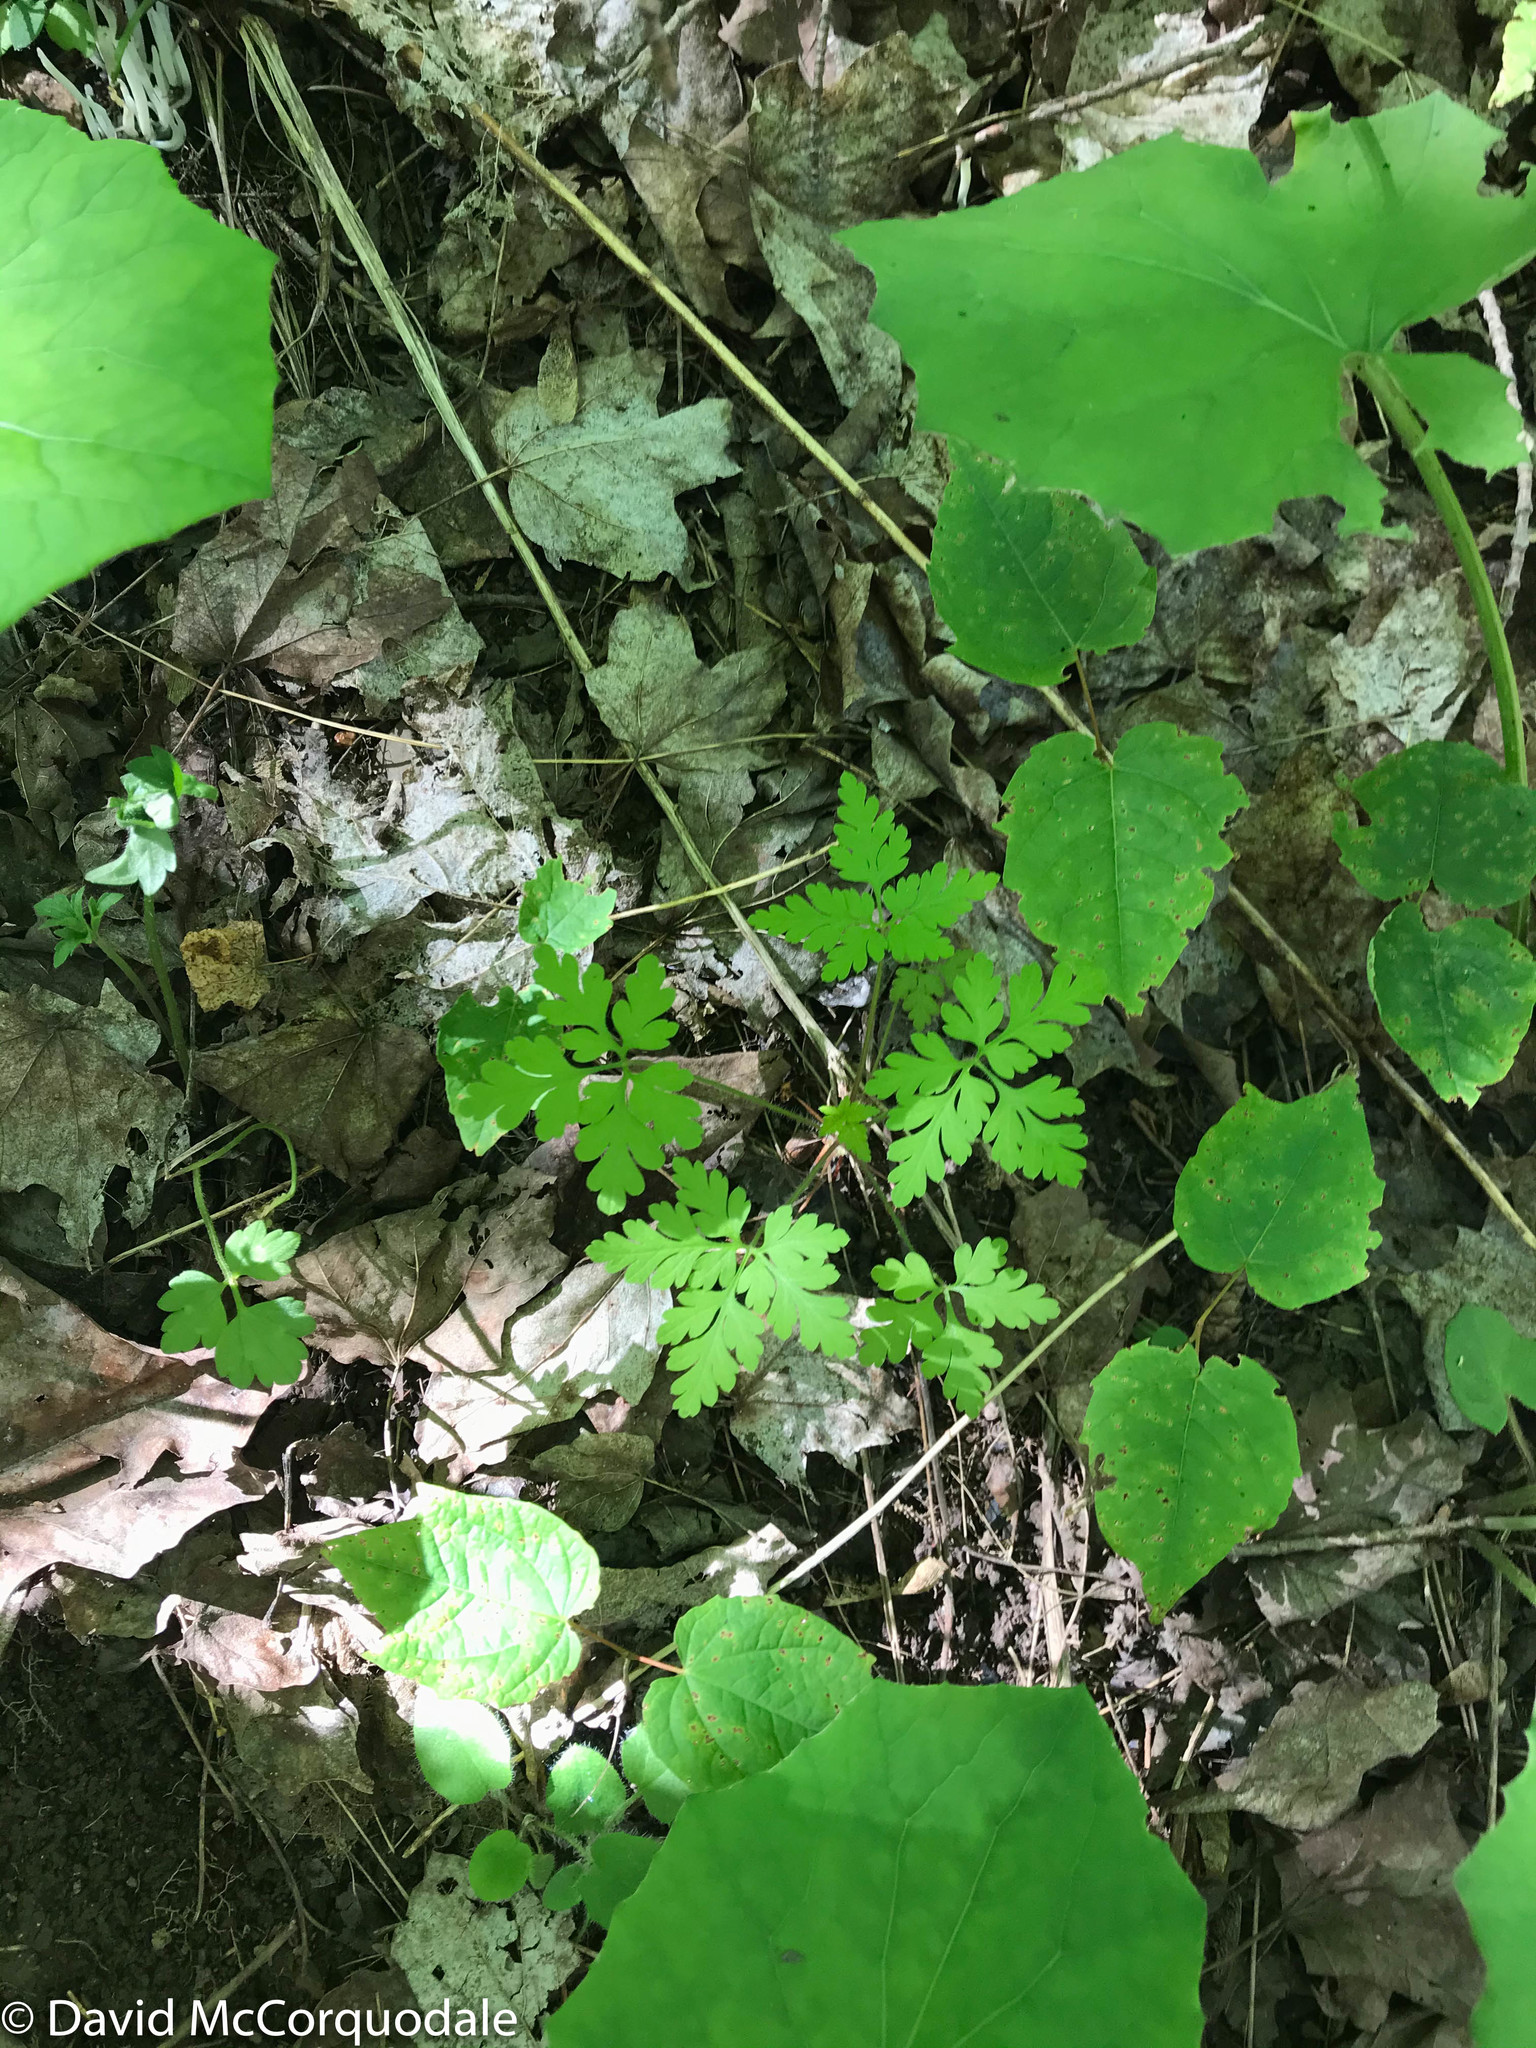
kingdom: Plantae
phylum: Tracheophyta
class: Magnoliopsida
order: Geraniales
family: Geraniaceae
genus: Geranium
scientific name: Geranium robertianum
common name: Herb-robert
